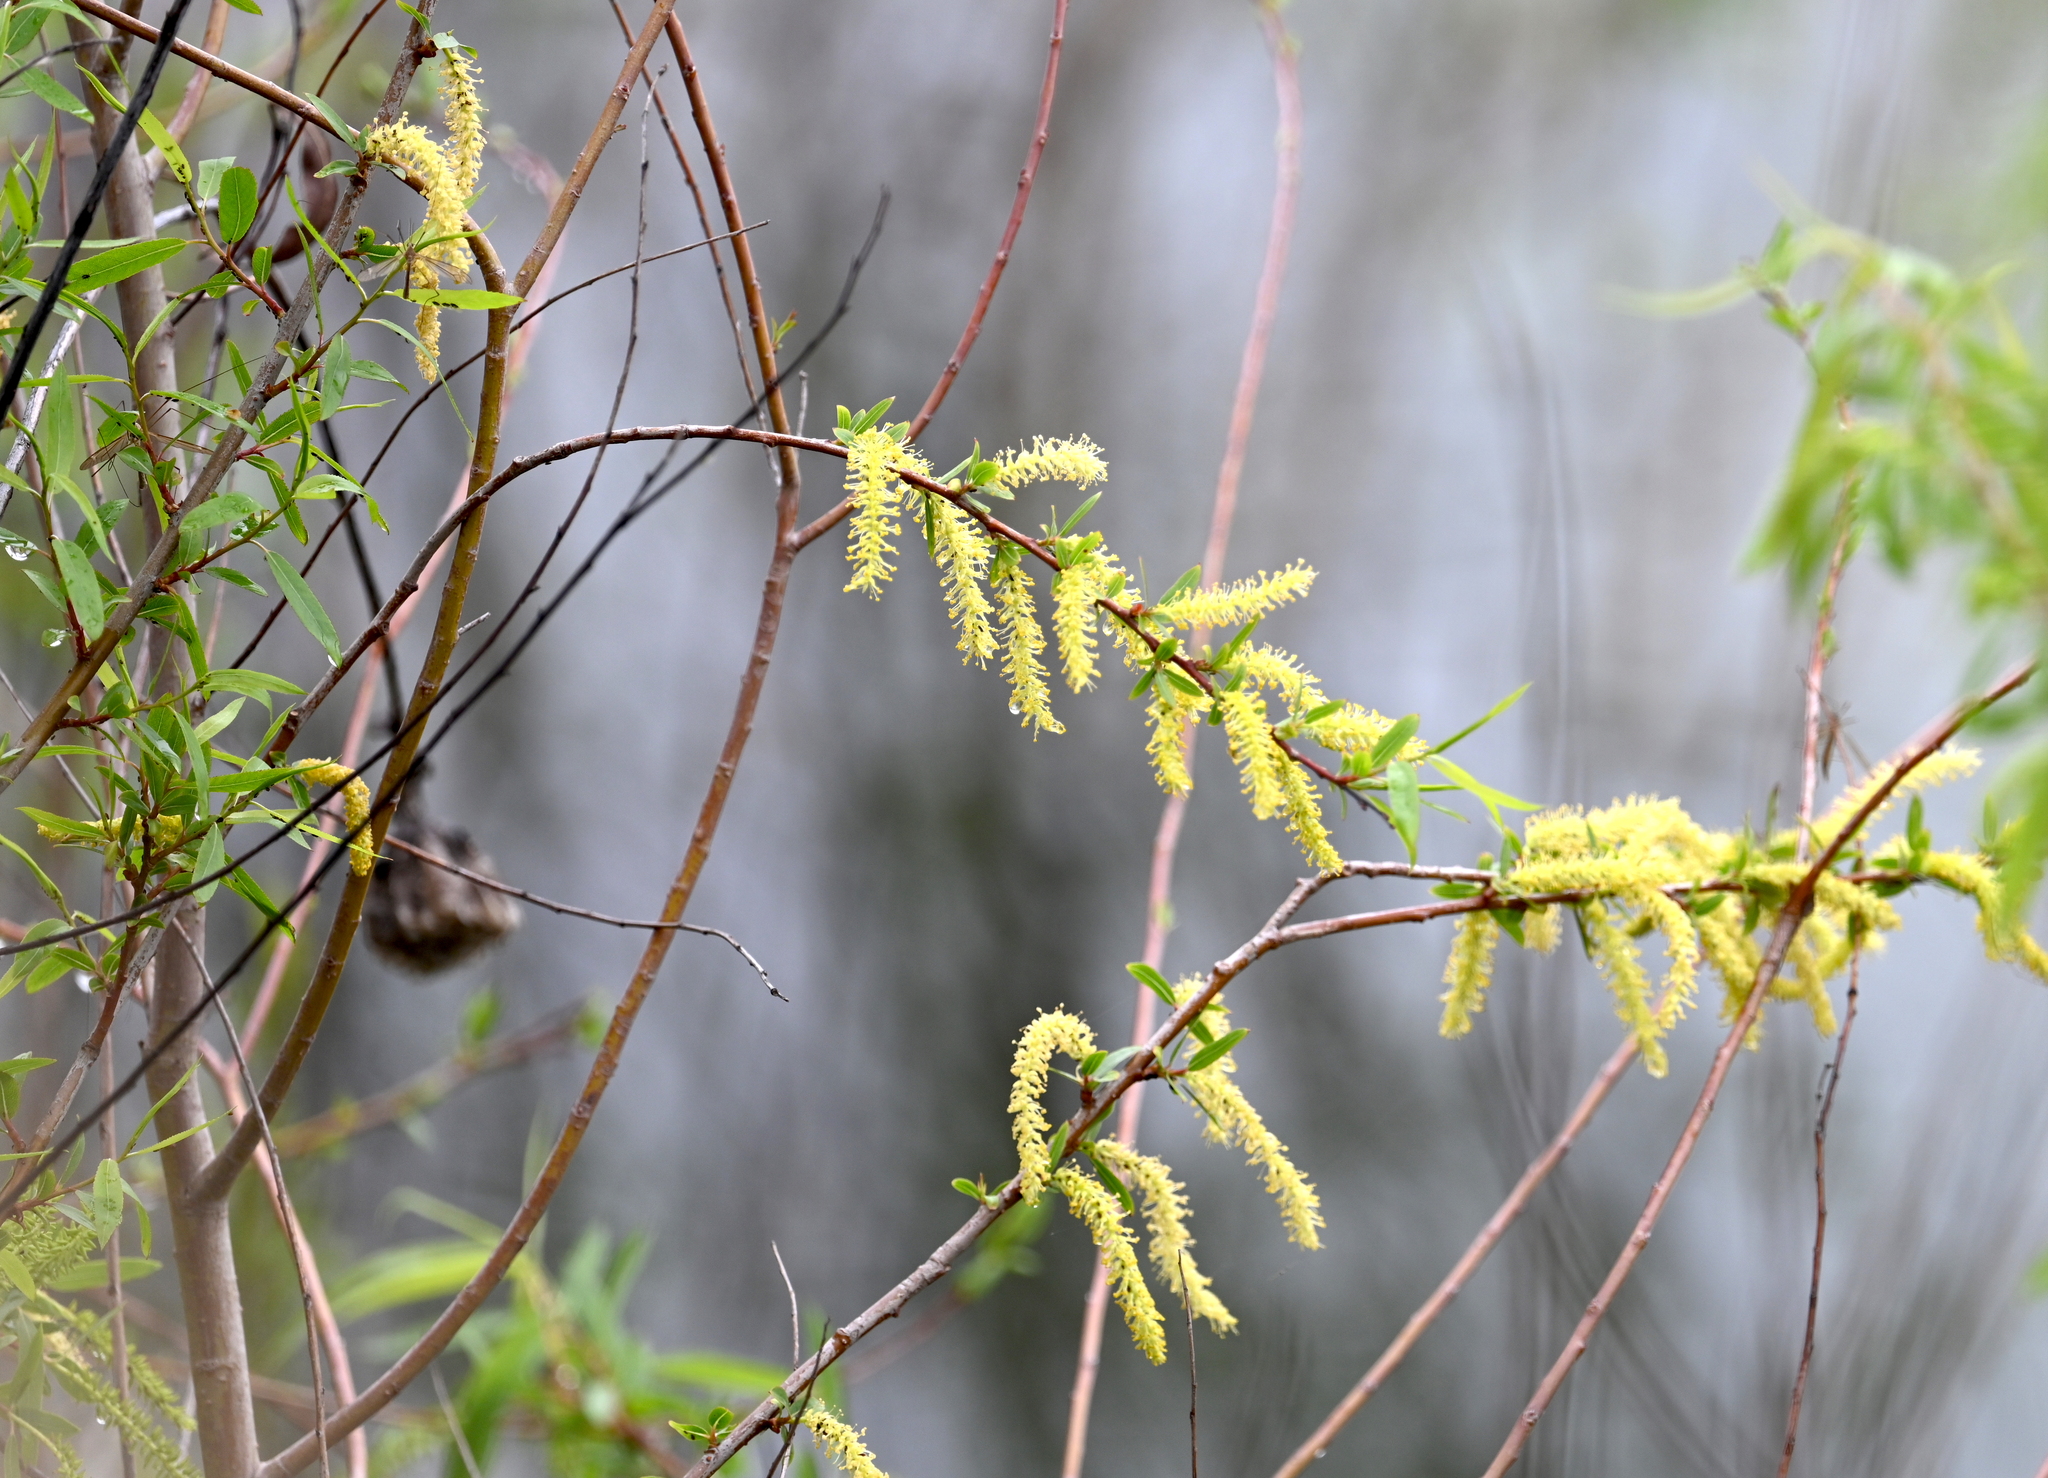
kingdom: Plantae
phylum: Tracheophyta
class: Magnoliopsida
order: Malpighiales
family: Salicaceae
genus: Salix
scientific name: Salix nigra
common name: Black willow
